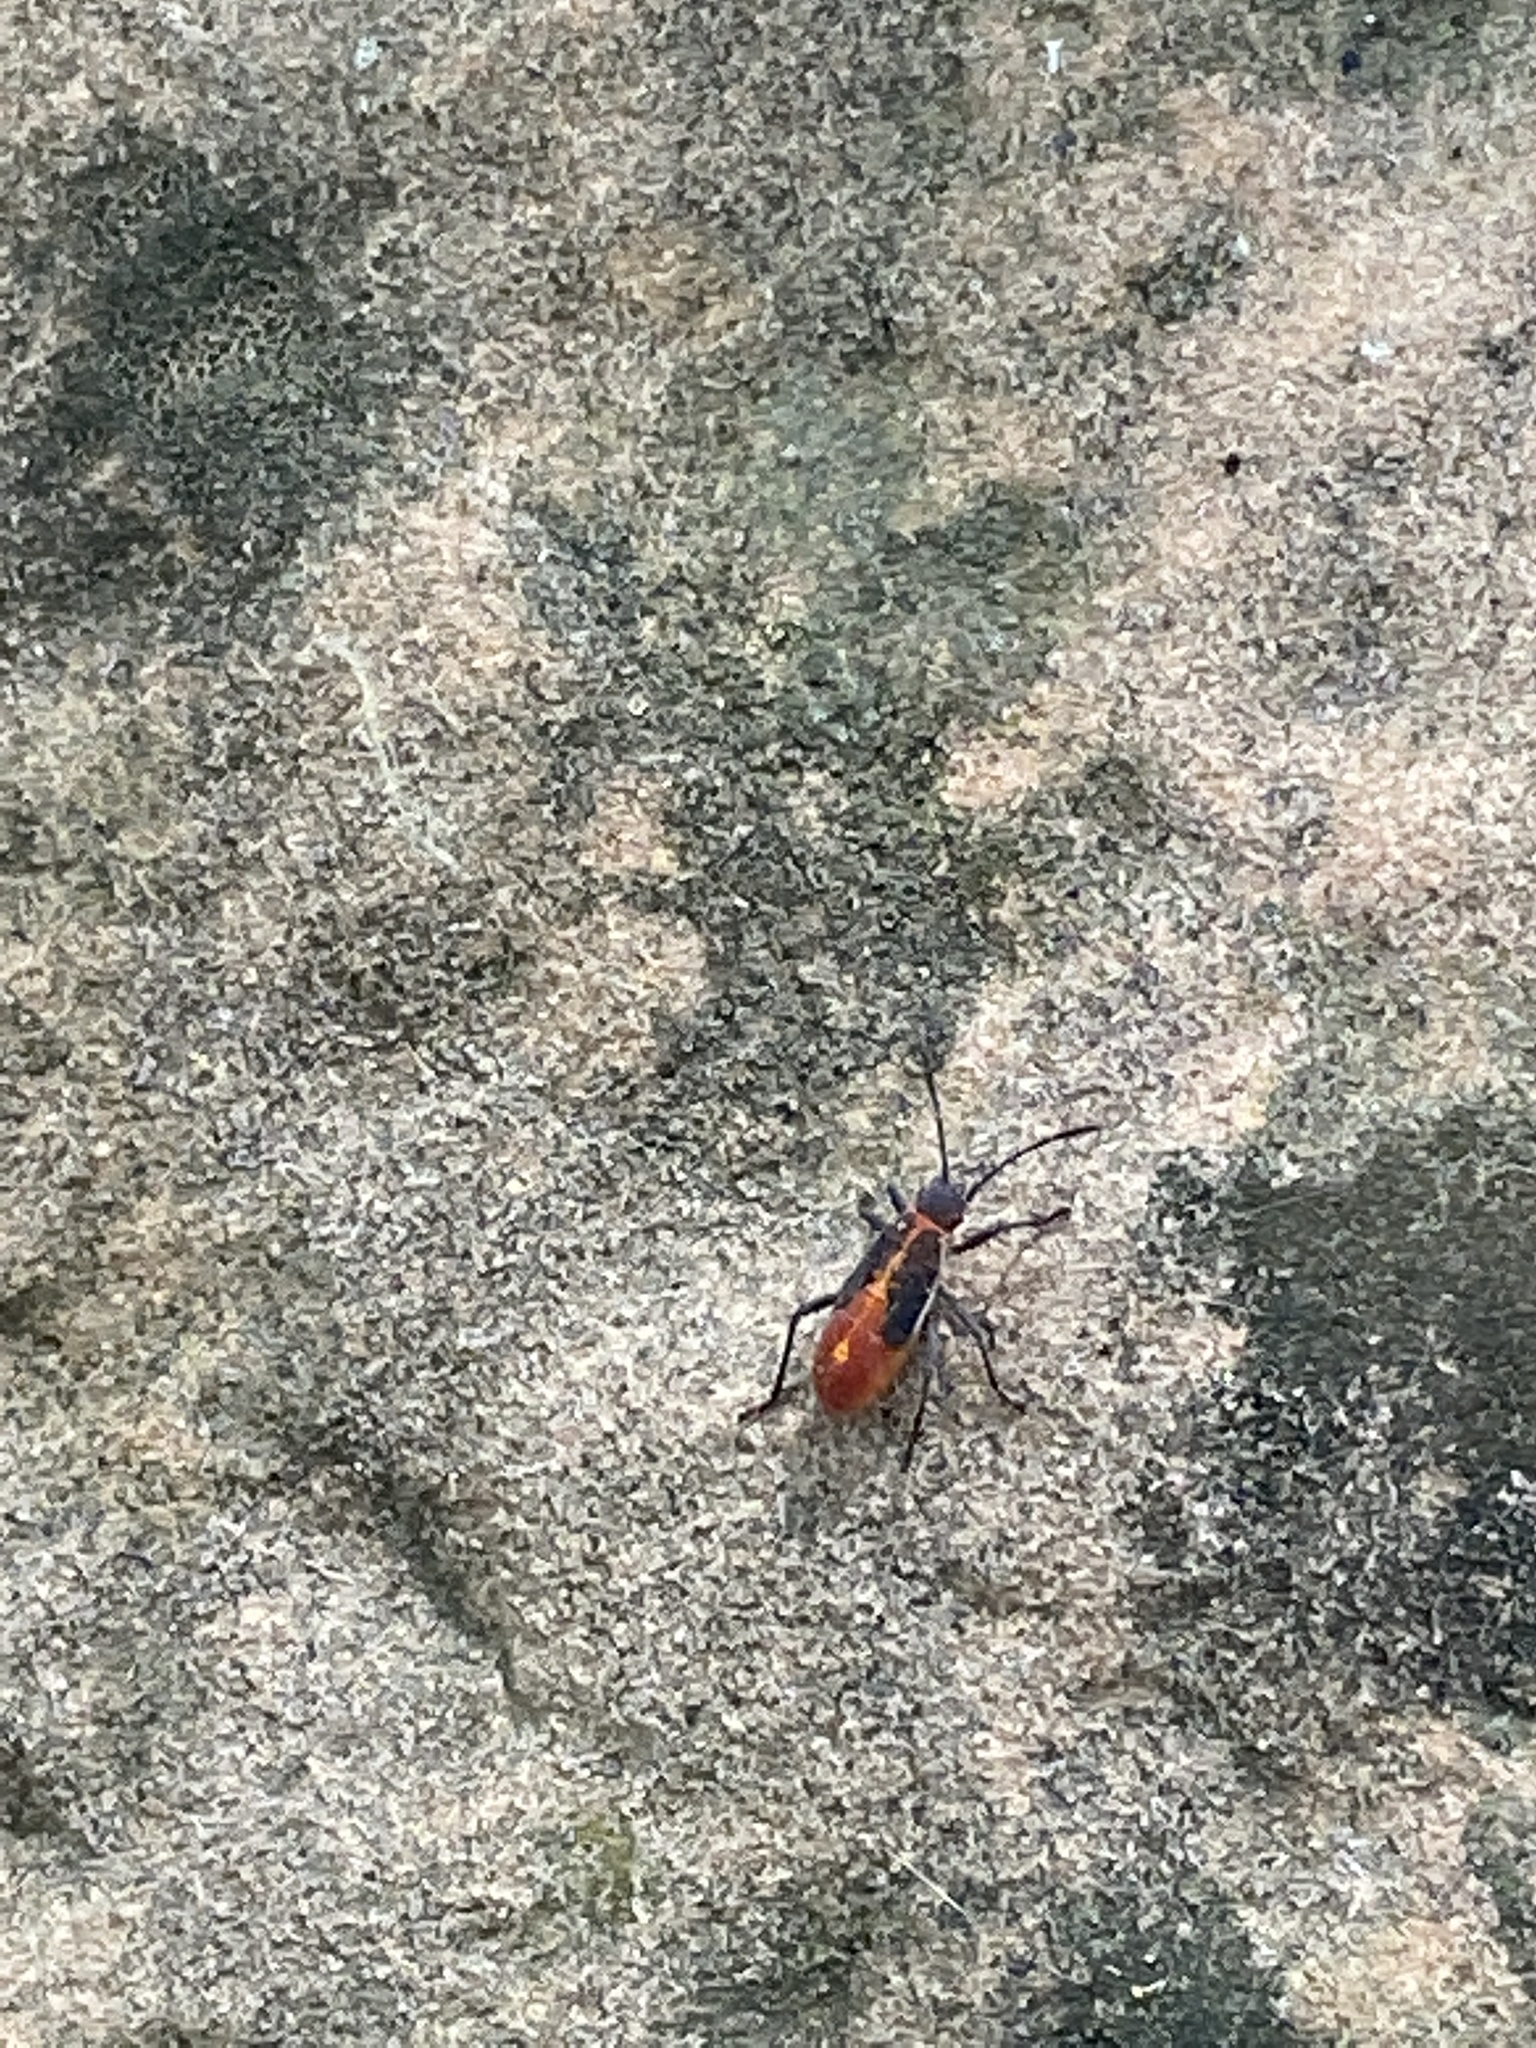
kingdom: Animalia
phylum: Arthropoda
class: Insecta
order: Hemiptera
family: Rhopalidae
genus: Boisea
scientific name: Boisea trivittata
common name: Boxelder bug
